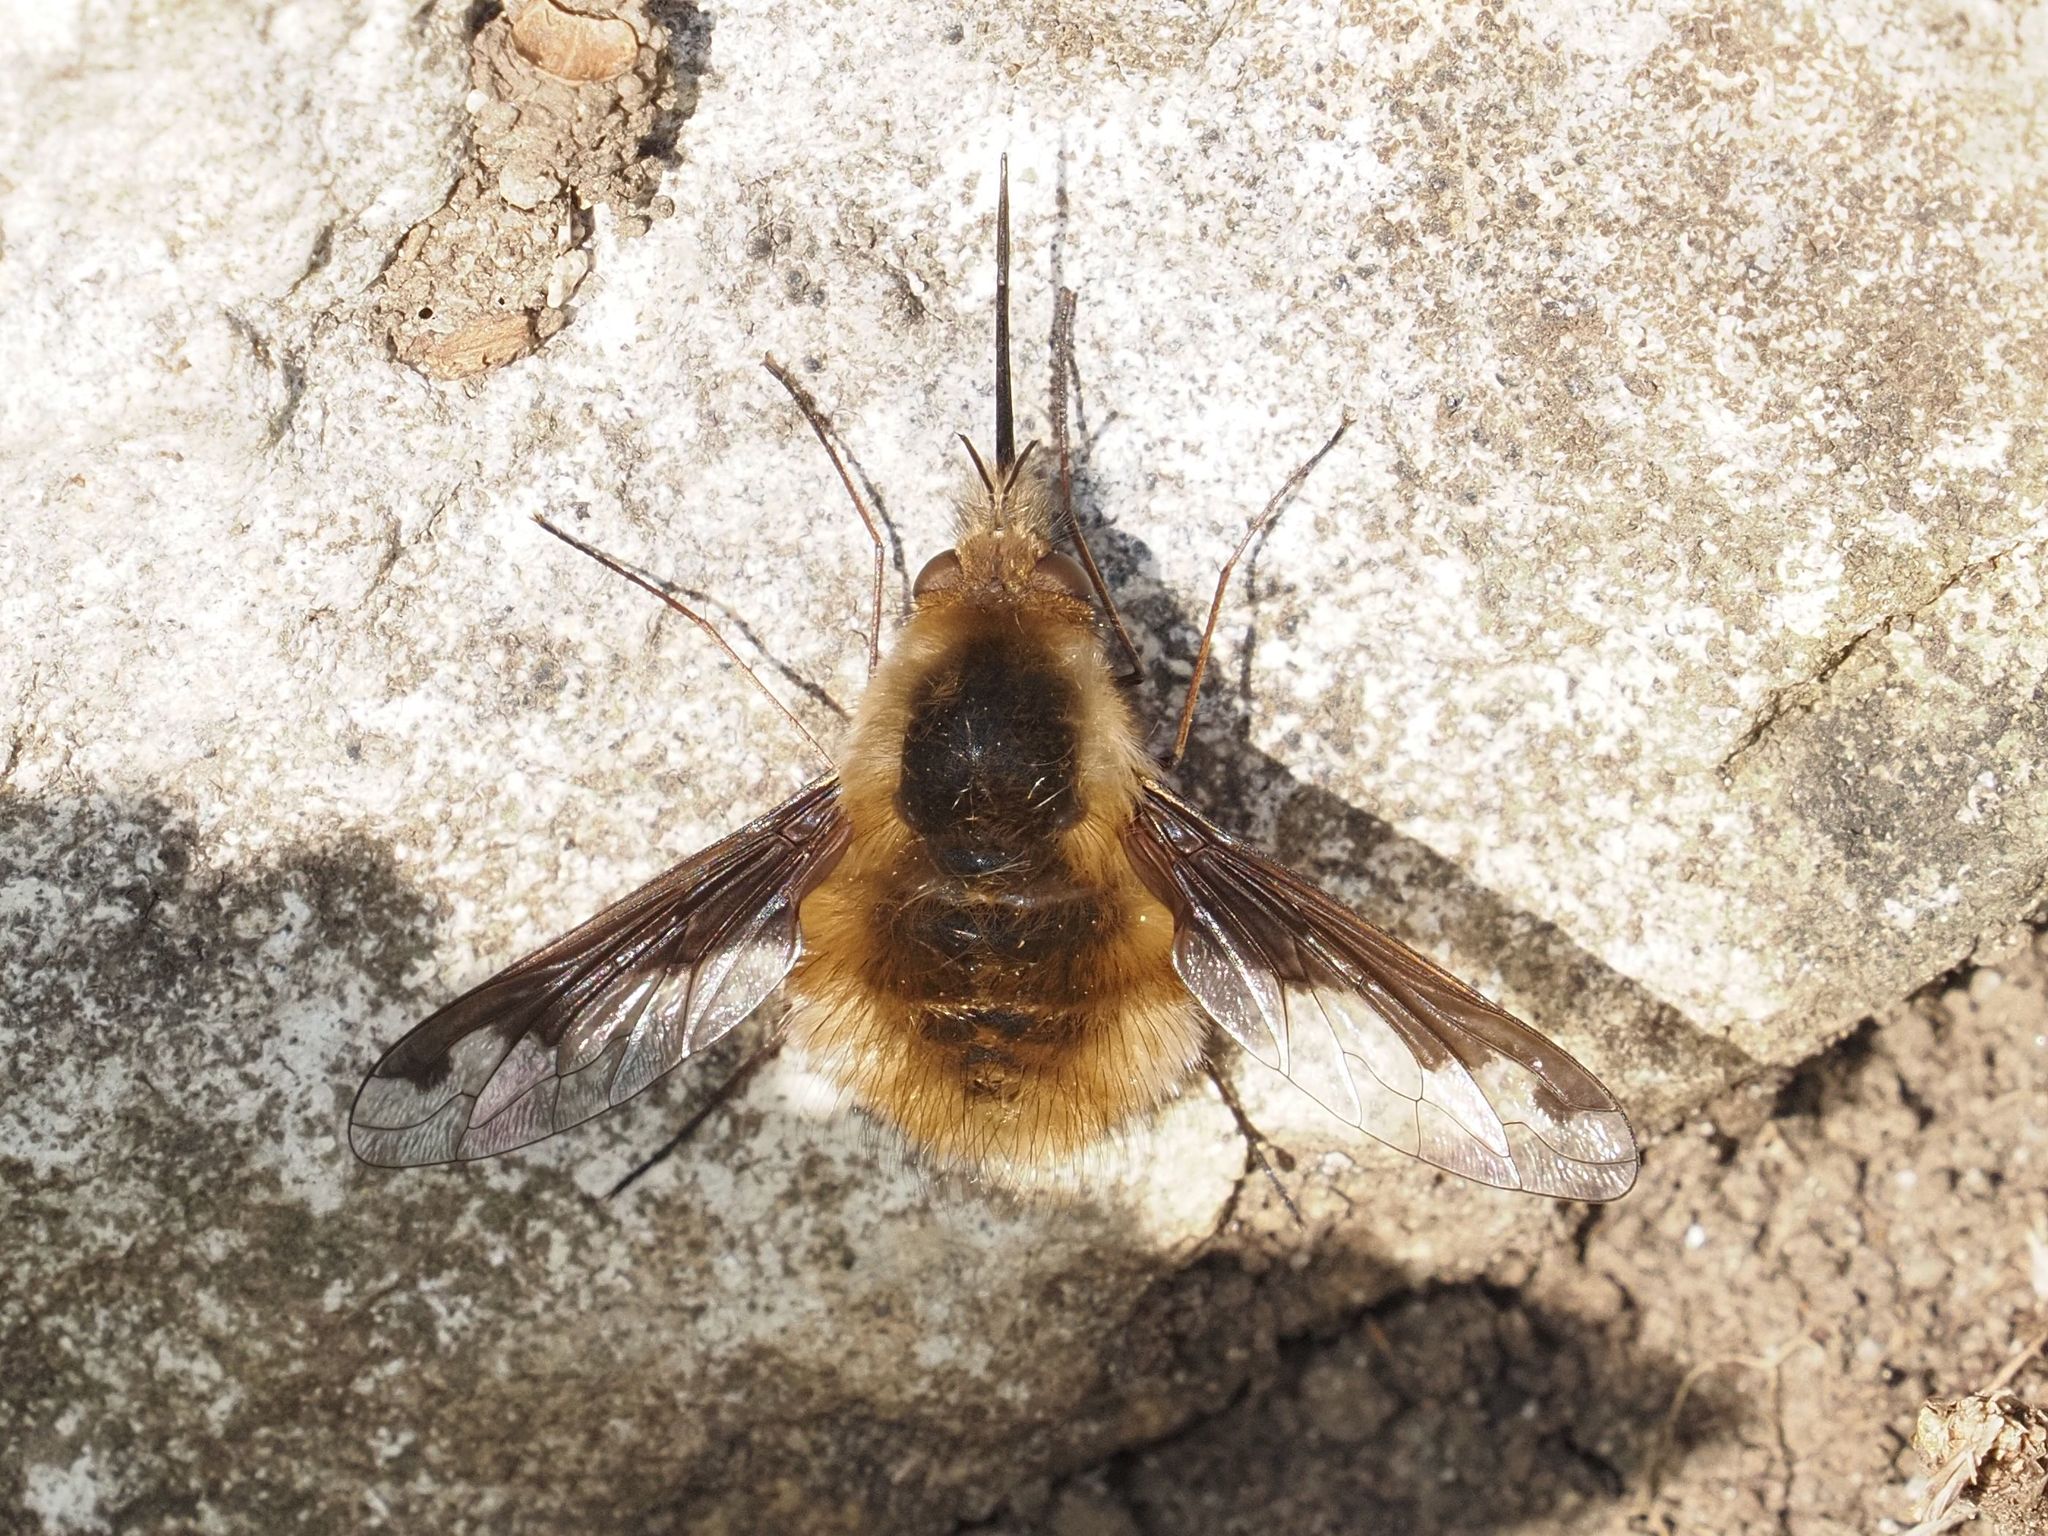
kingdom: Animalia
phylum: Arthropoda
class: Insecta
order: Diptera
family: Bombyliidae
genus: Bombylius
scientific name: Bombylius major
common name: Bee fly
